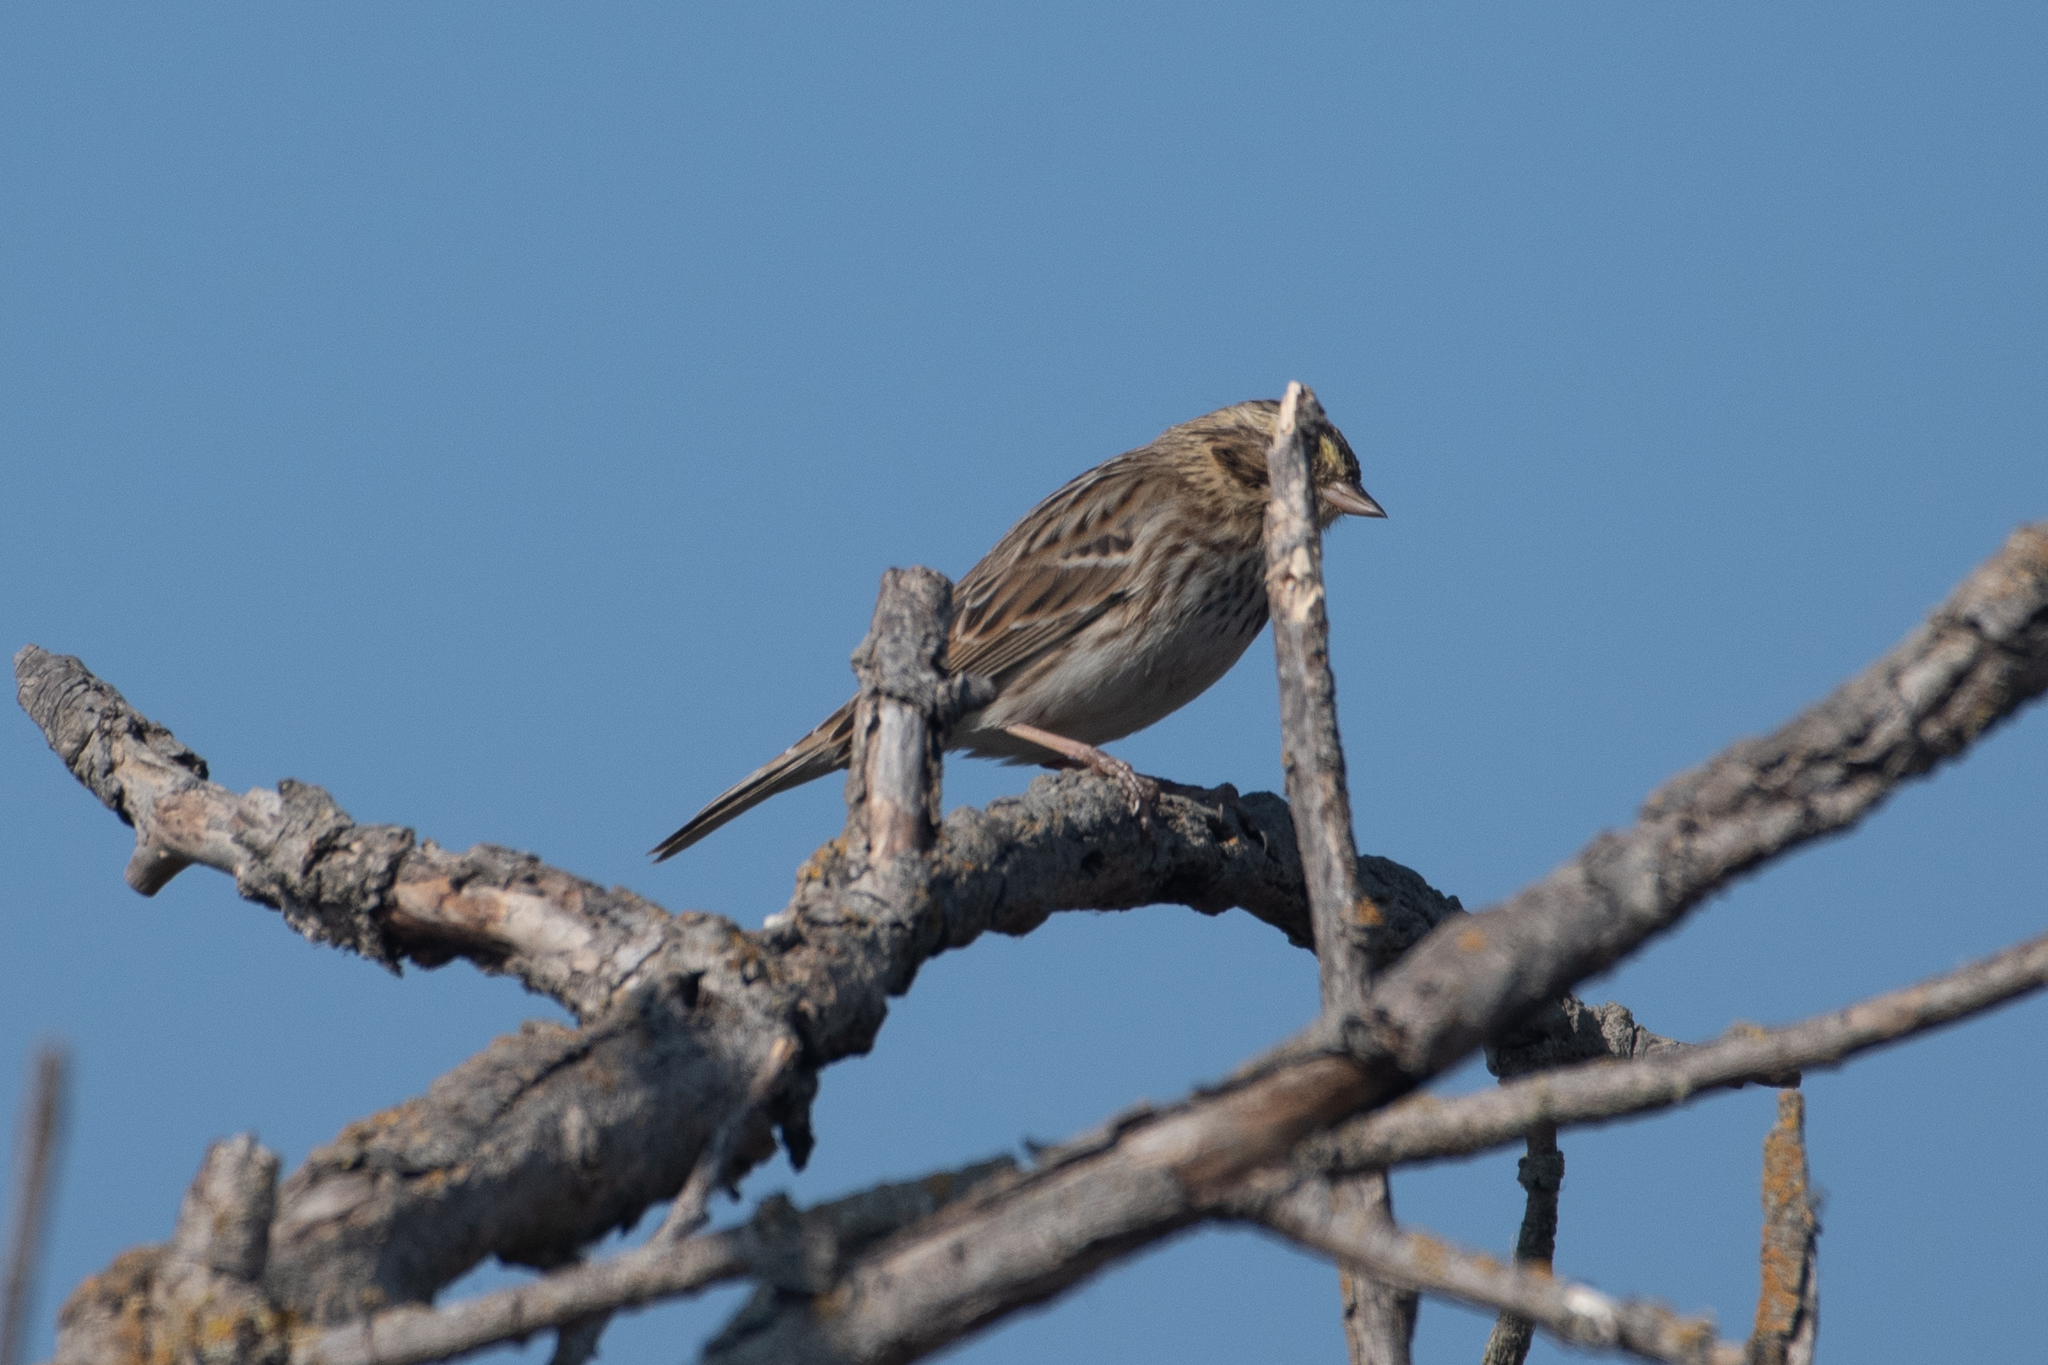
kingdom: Animalia
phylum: Chordata
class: Aves
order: Passeriformes
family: Passerellidae
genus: Passerculus
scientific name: Passerculus sandwichensis
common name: Savannah sparrow
